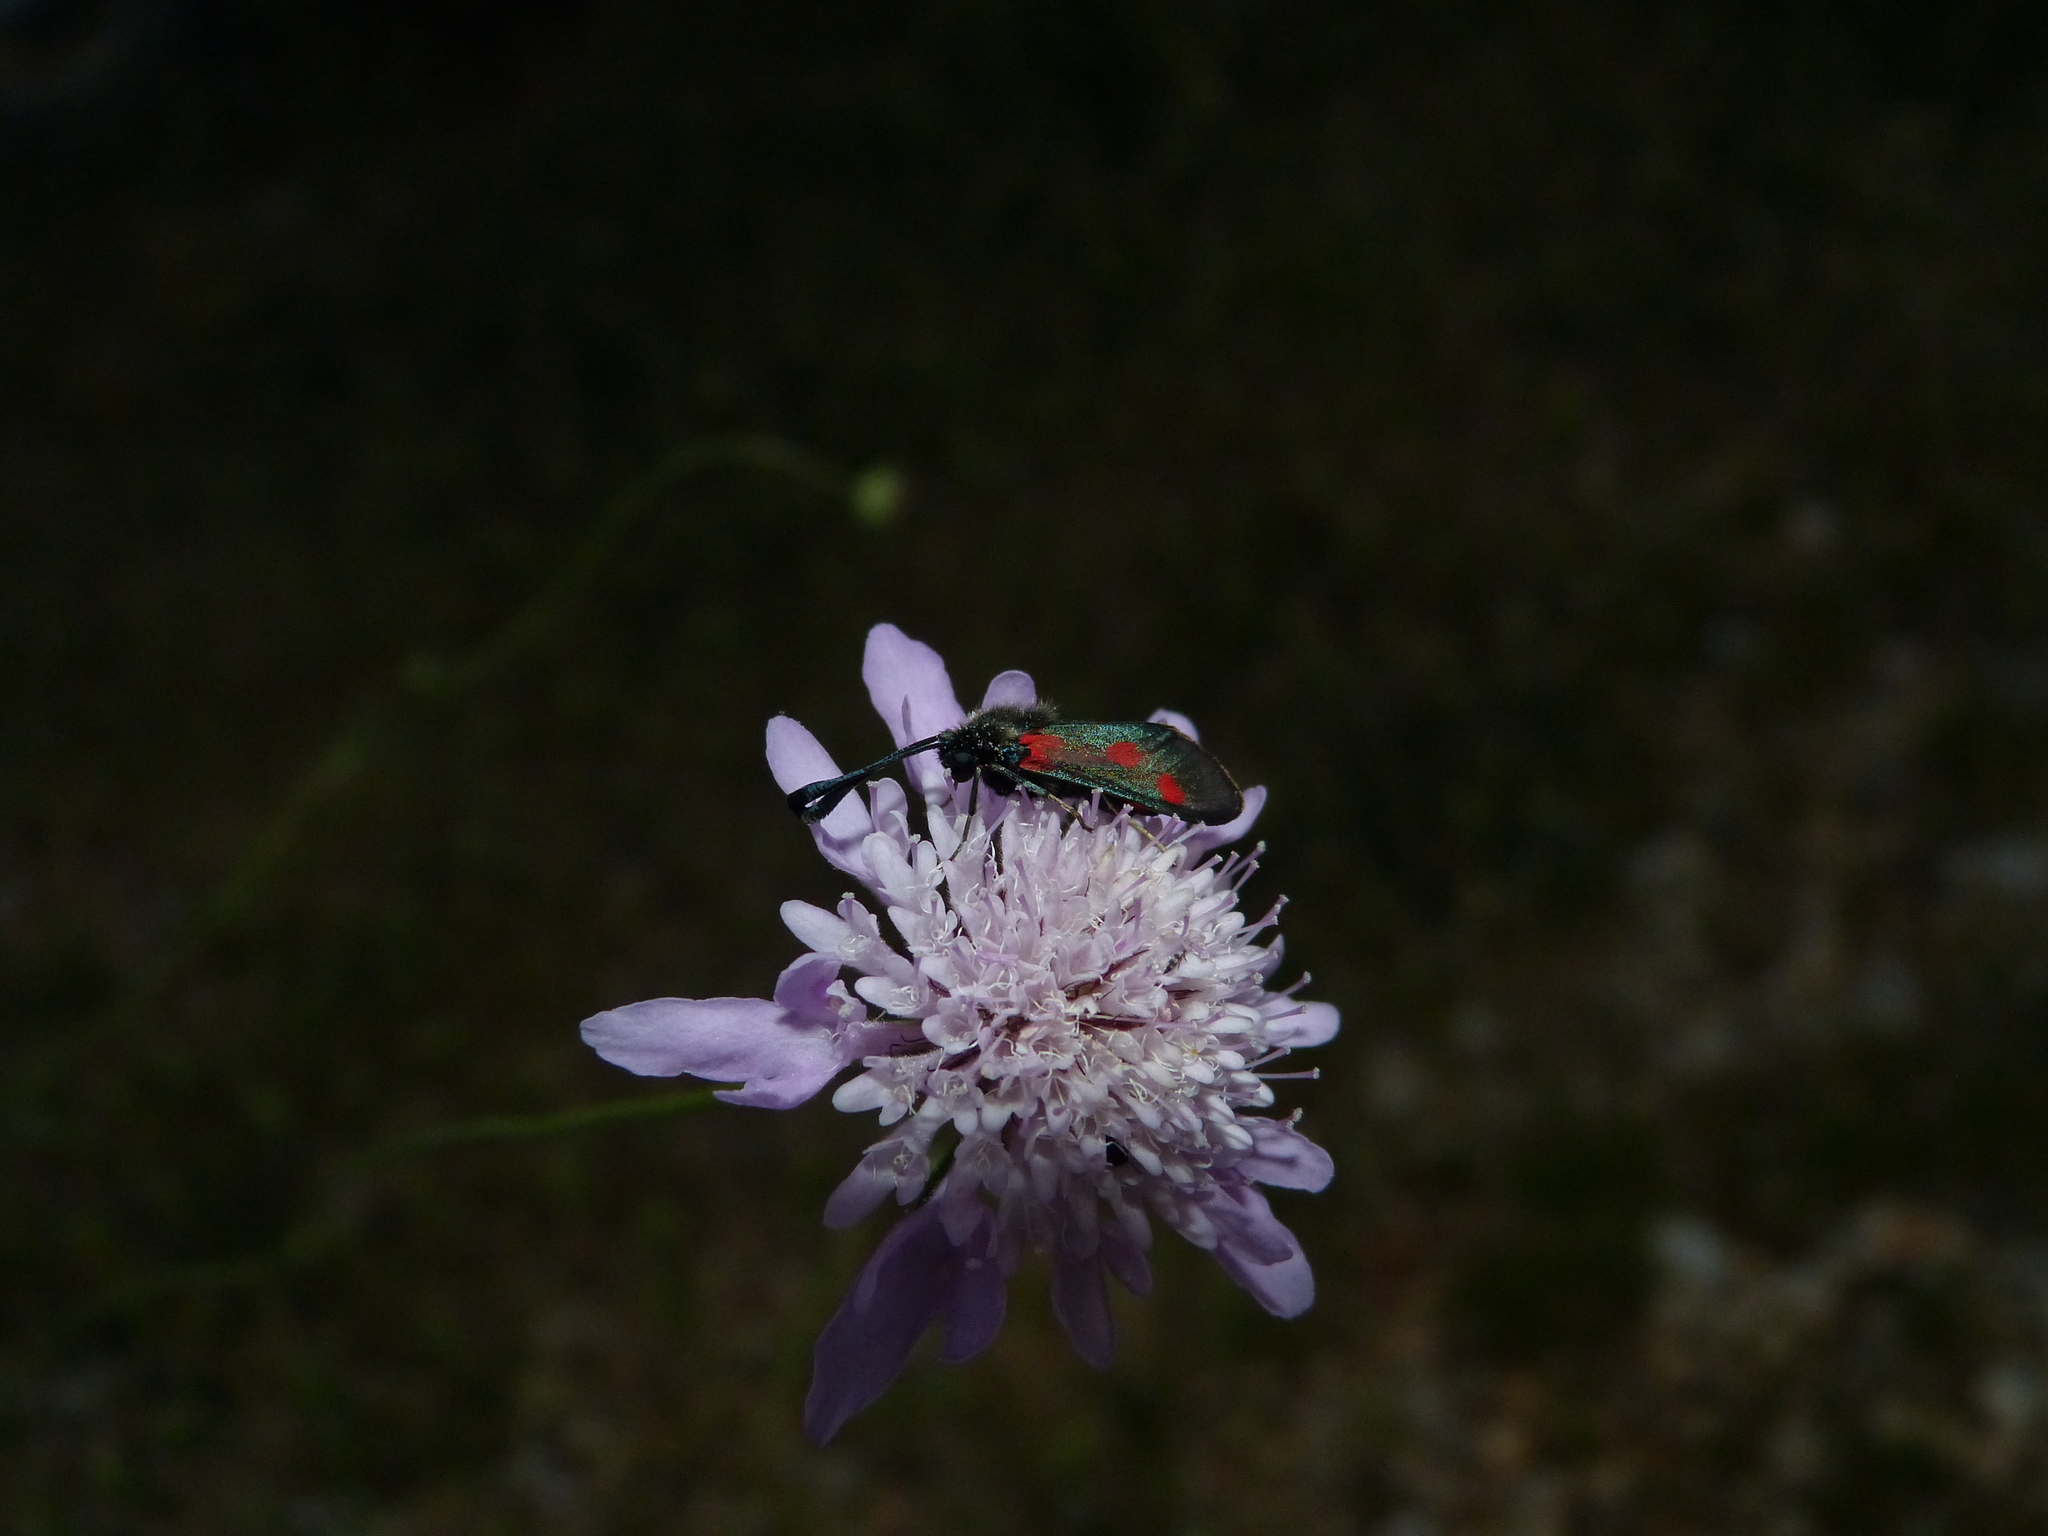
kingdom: Animalia
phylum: Arthropoda
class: Insecta
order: Lepidoptera
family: Zygaenidae
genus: Zygaena
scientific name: Zygaena sarpedon
